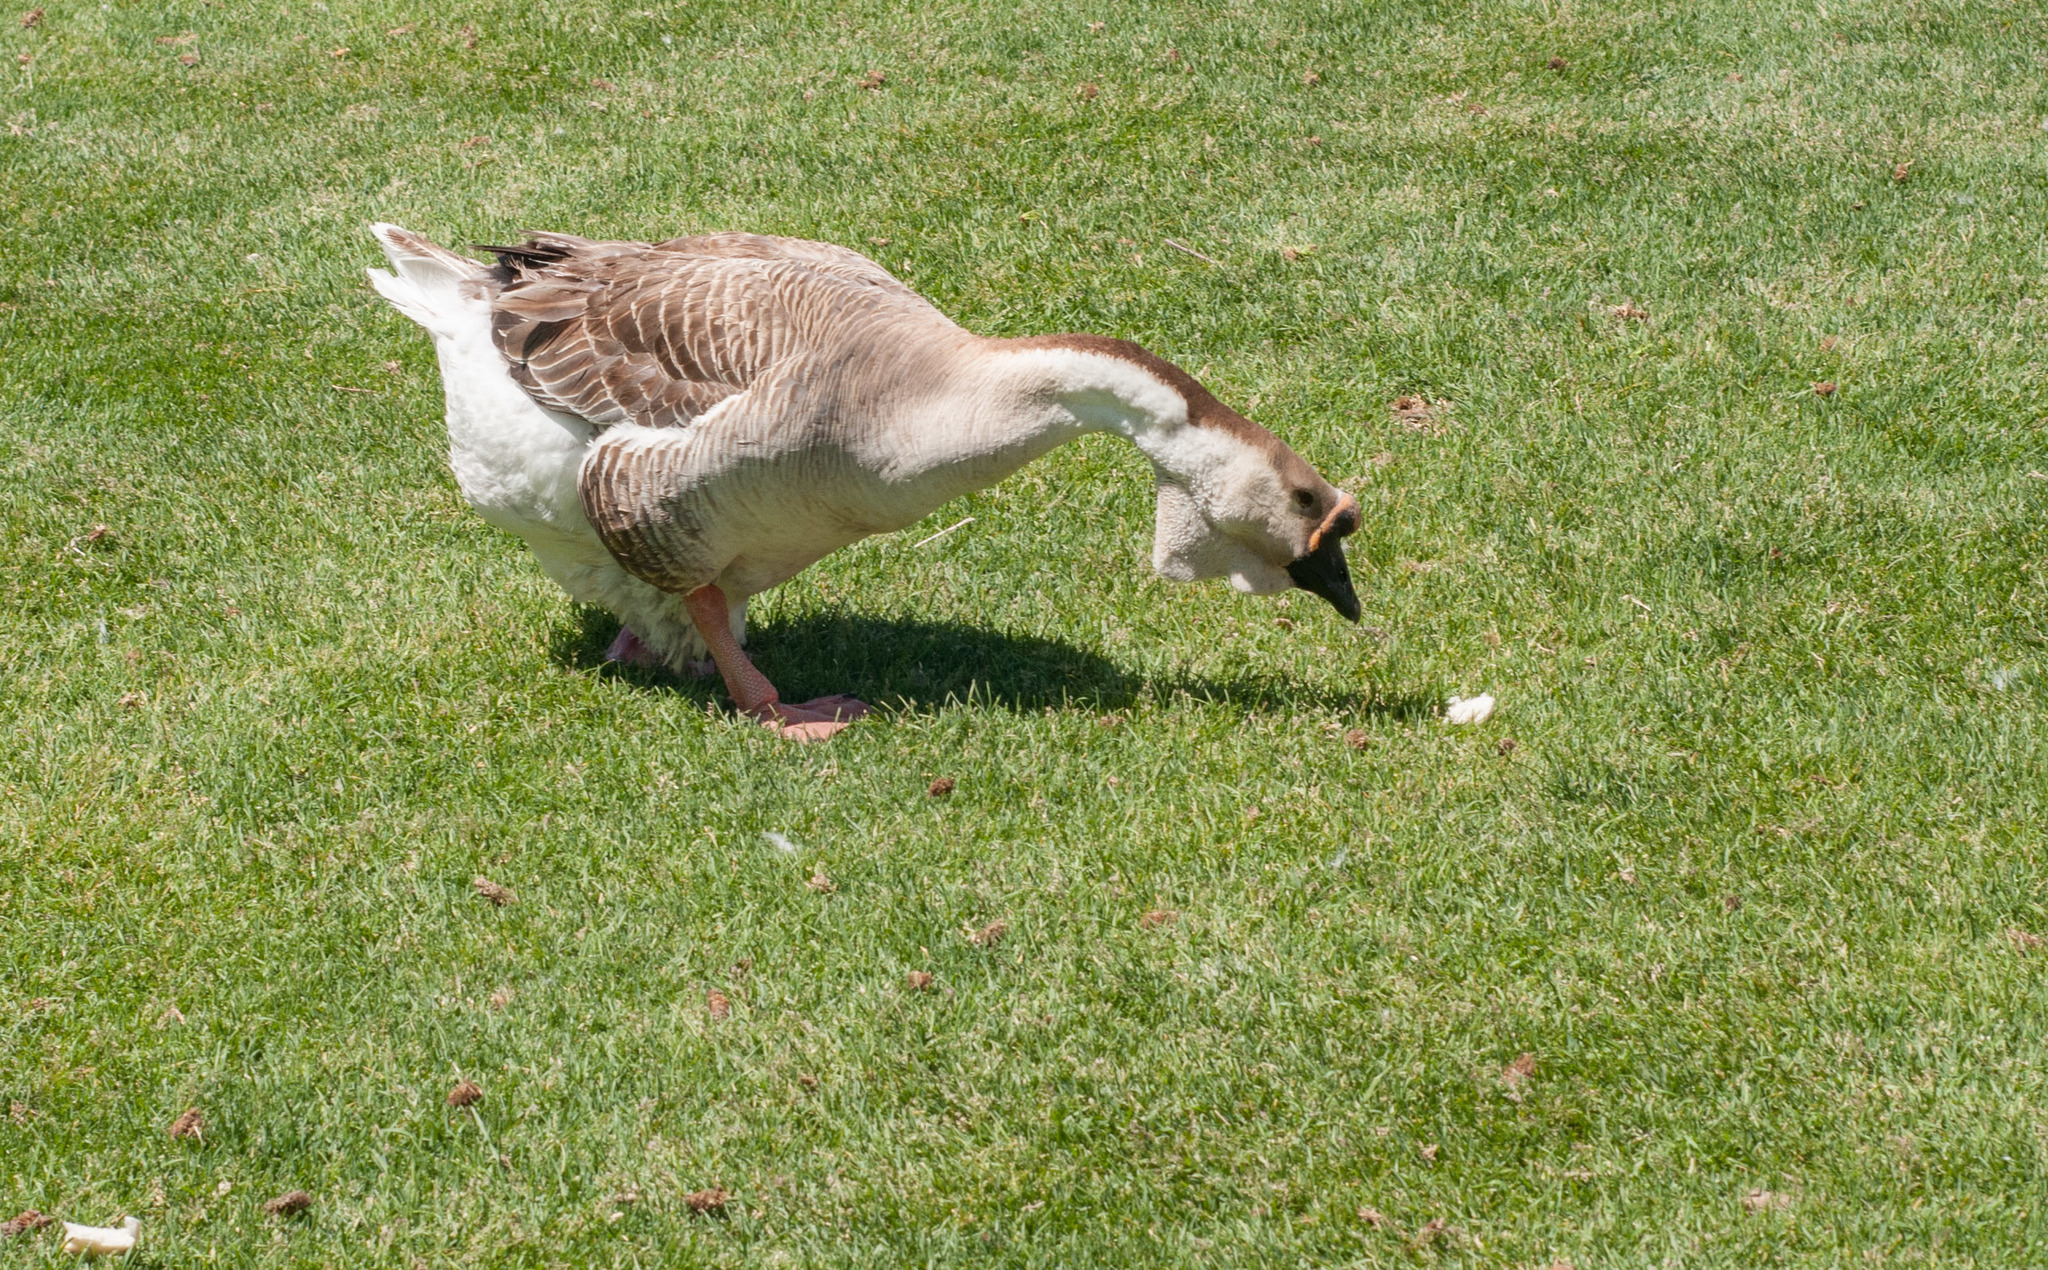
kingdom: Animalia
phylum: Chordata
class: Aves
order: Anseriformes
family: Anatidae
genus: Anser
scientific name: Anser cygnoides
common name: Swan goose
